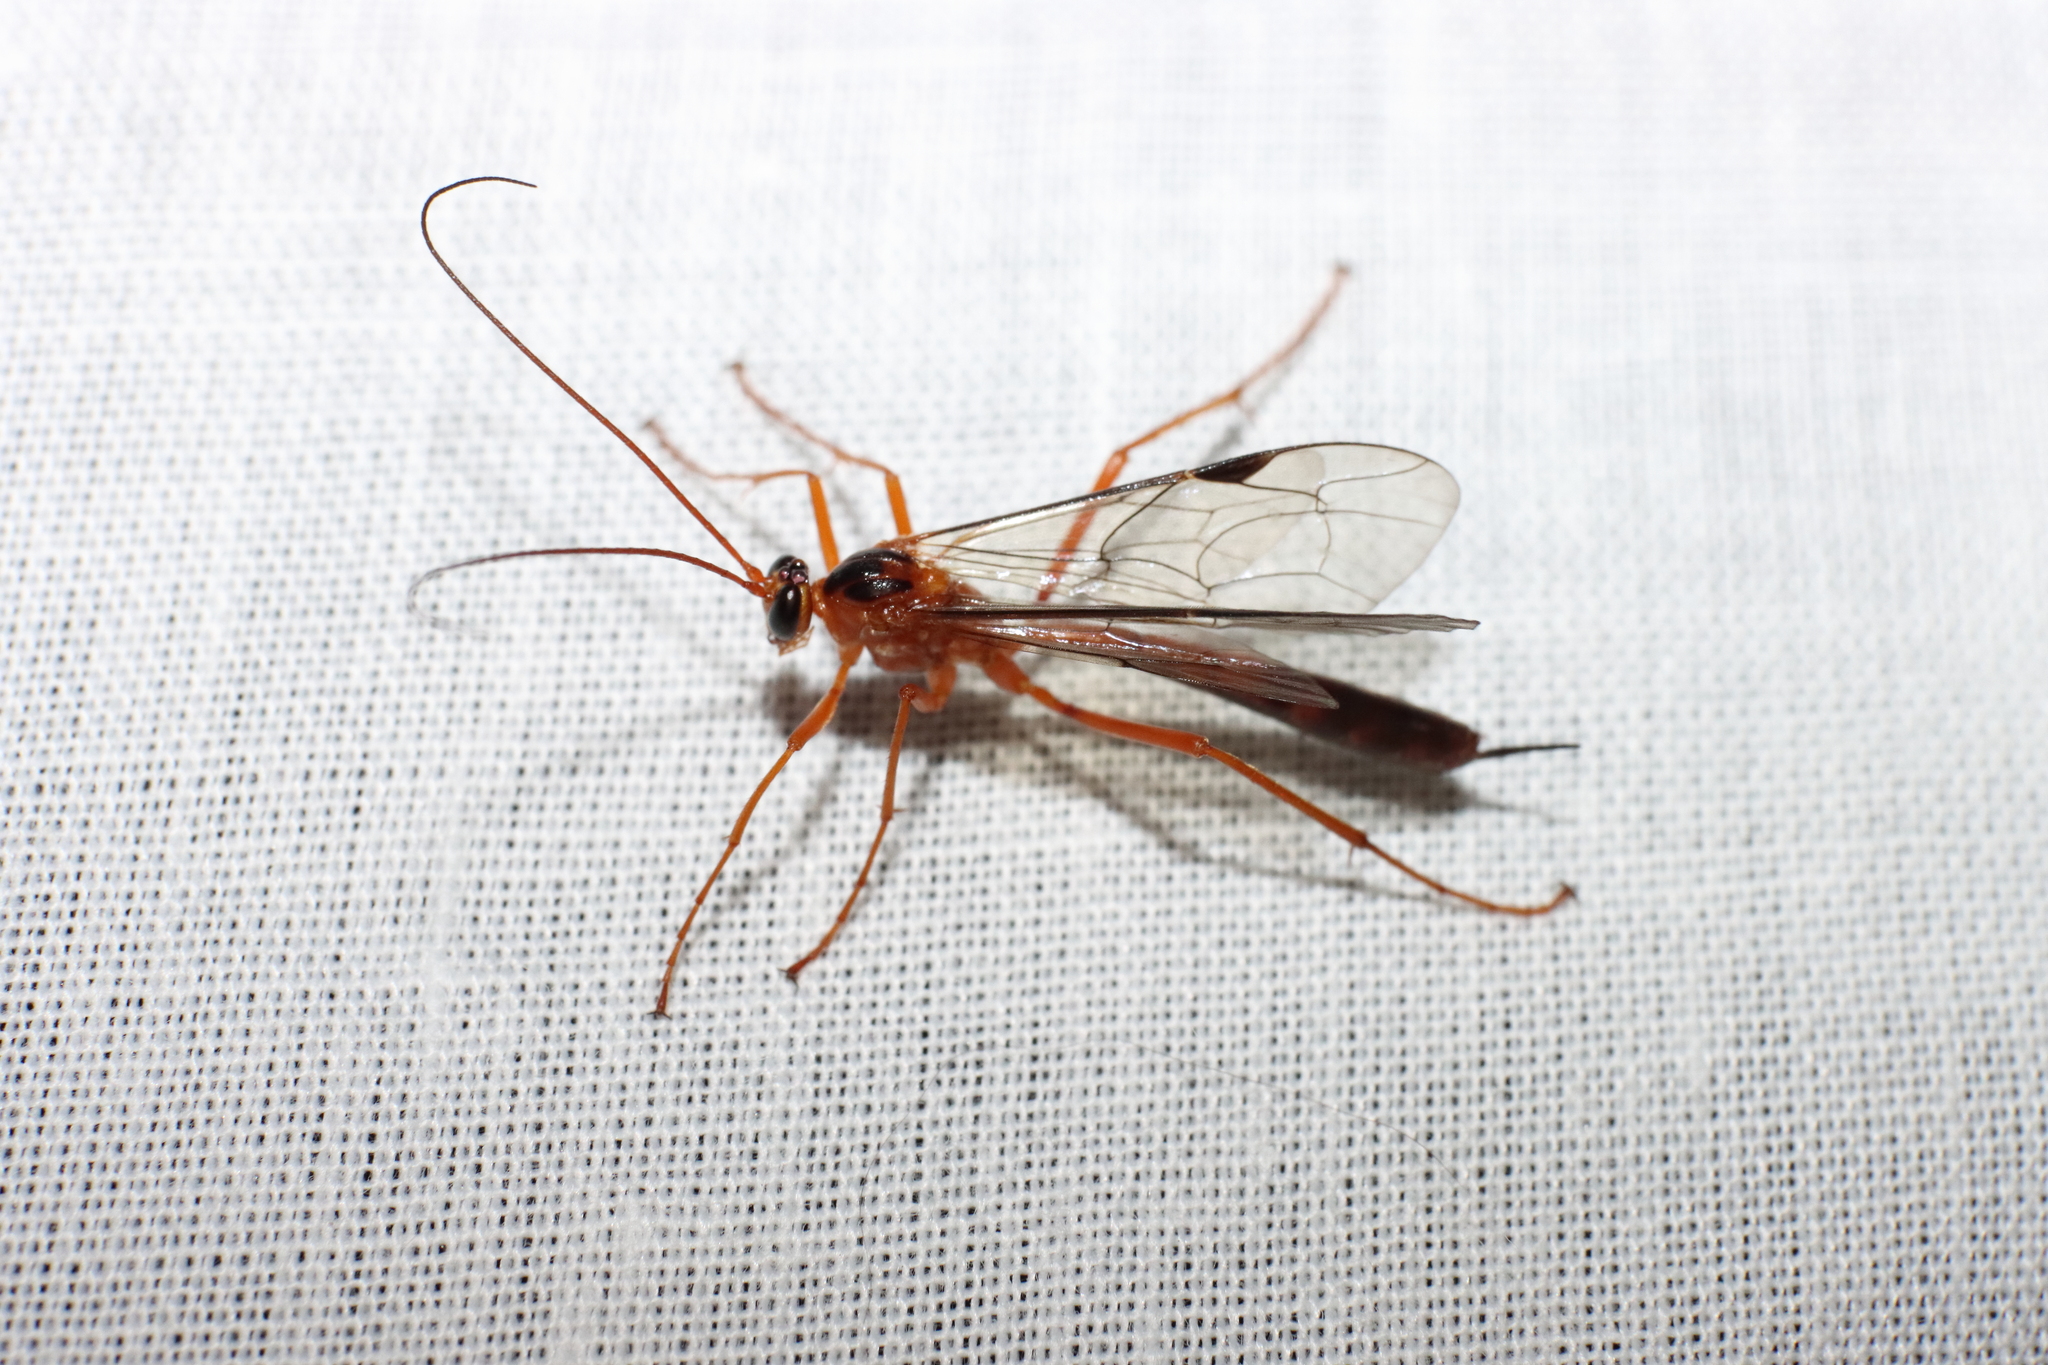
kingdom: Animalia
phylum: Arthropoda
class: Insecta
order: Hymenoptera
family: Ichneumonidae
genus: Netelia
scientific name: Netelia ephippiata
